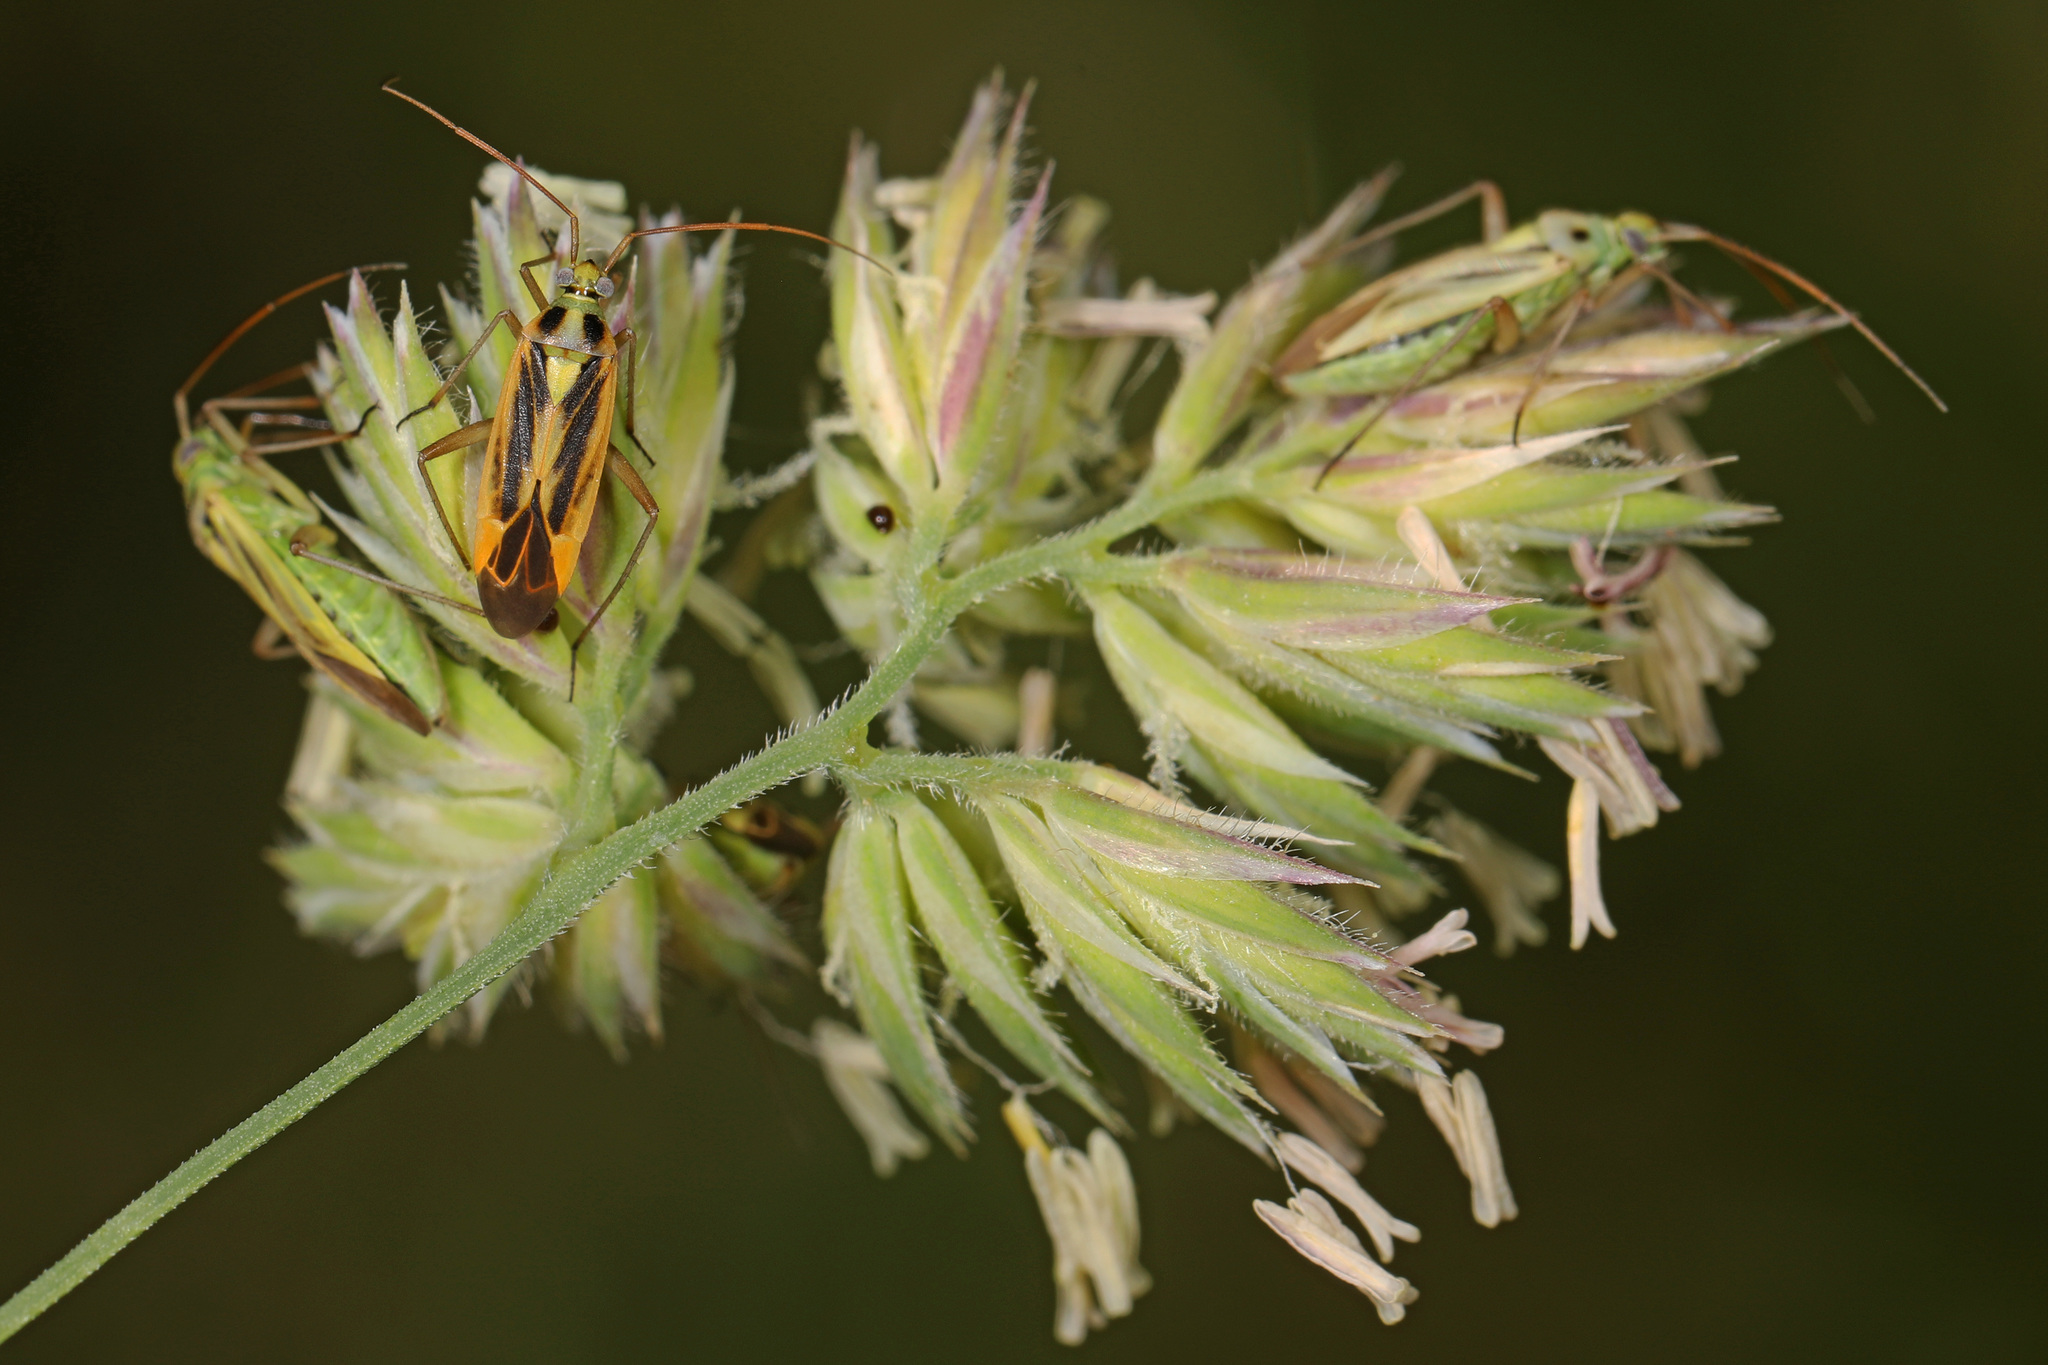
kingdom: Animalia
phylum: Arthropoda
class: Insecta
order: Hemiptera
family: Miridae
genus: Stenotus
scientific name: Stenotus binotatus
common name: Plant bug
